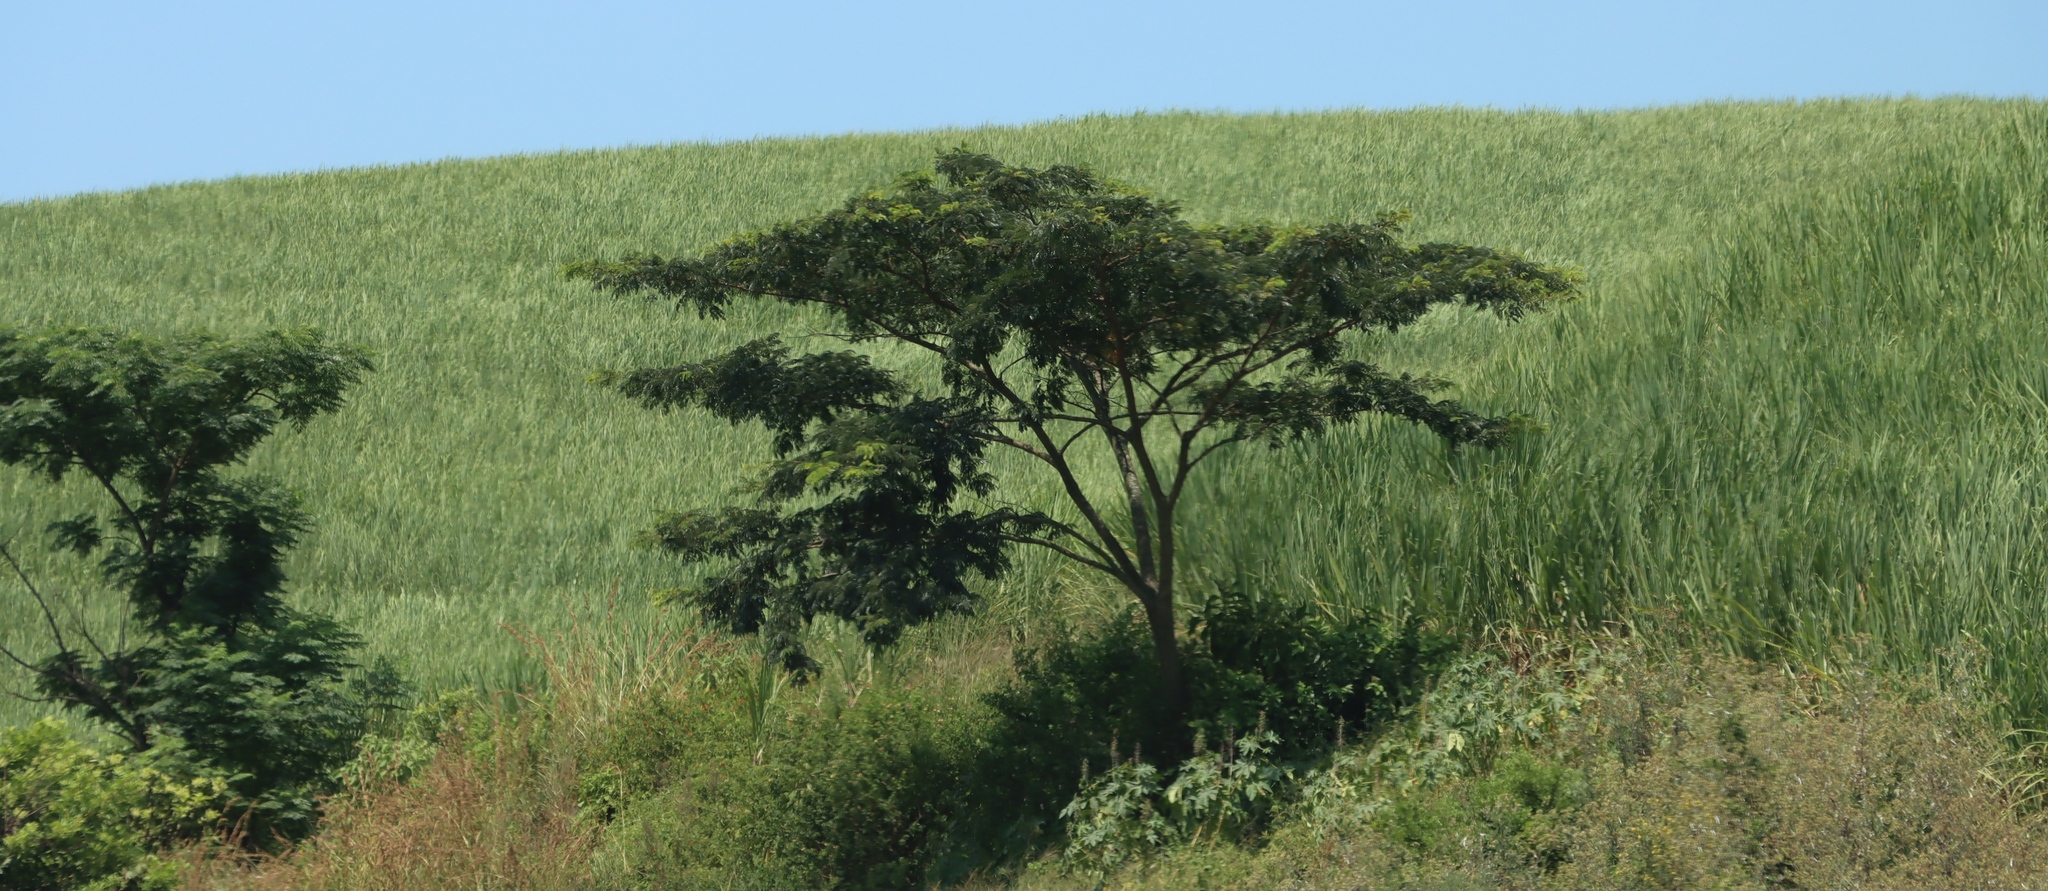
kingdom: Plantae
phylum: Tracheophyta
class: Magnoliopsida
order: Fabales
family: Fabaceae
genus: Albizia
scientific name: Albizia adianthifolia
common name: West african albizia
